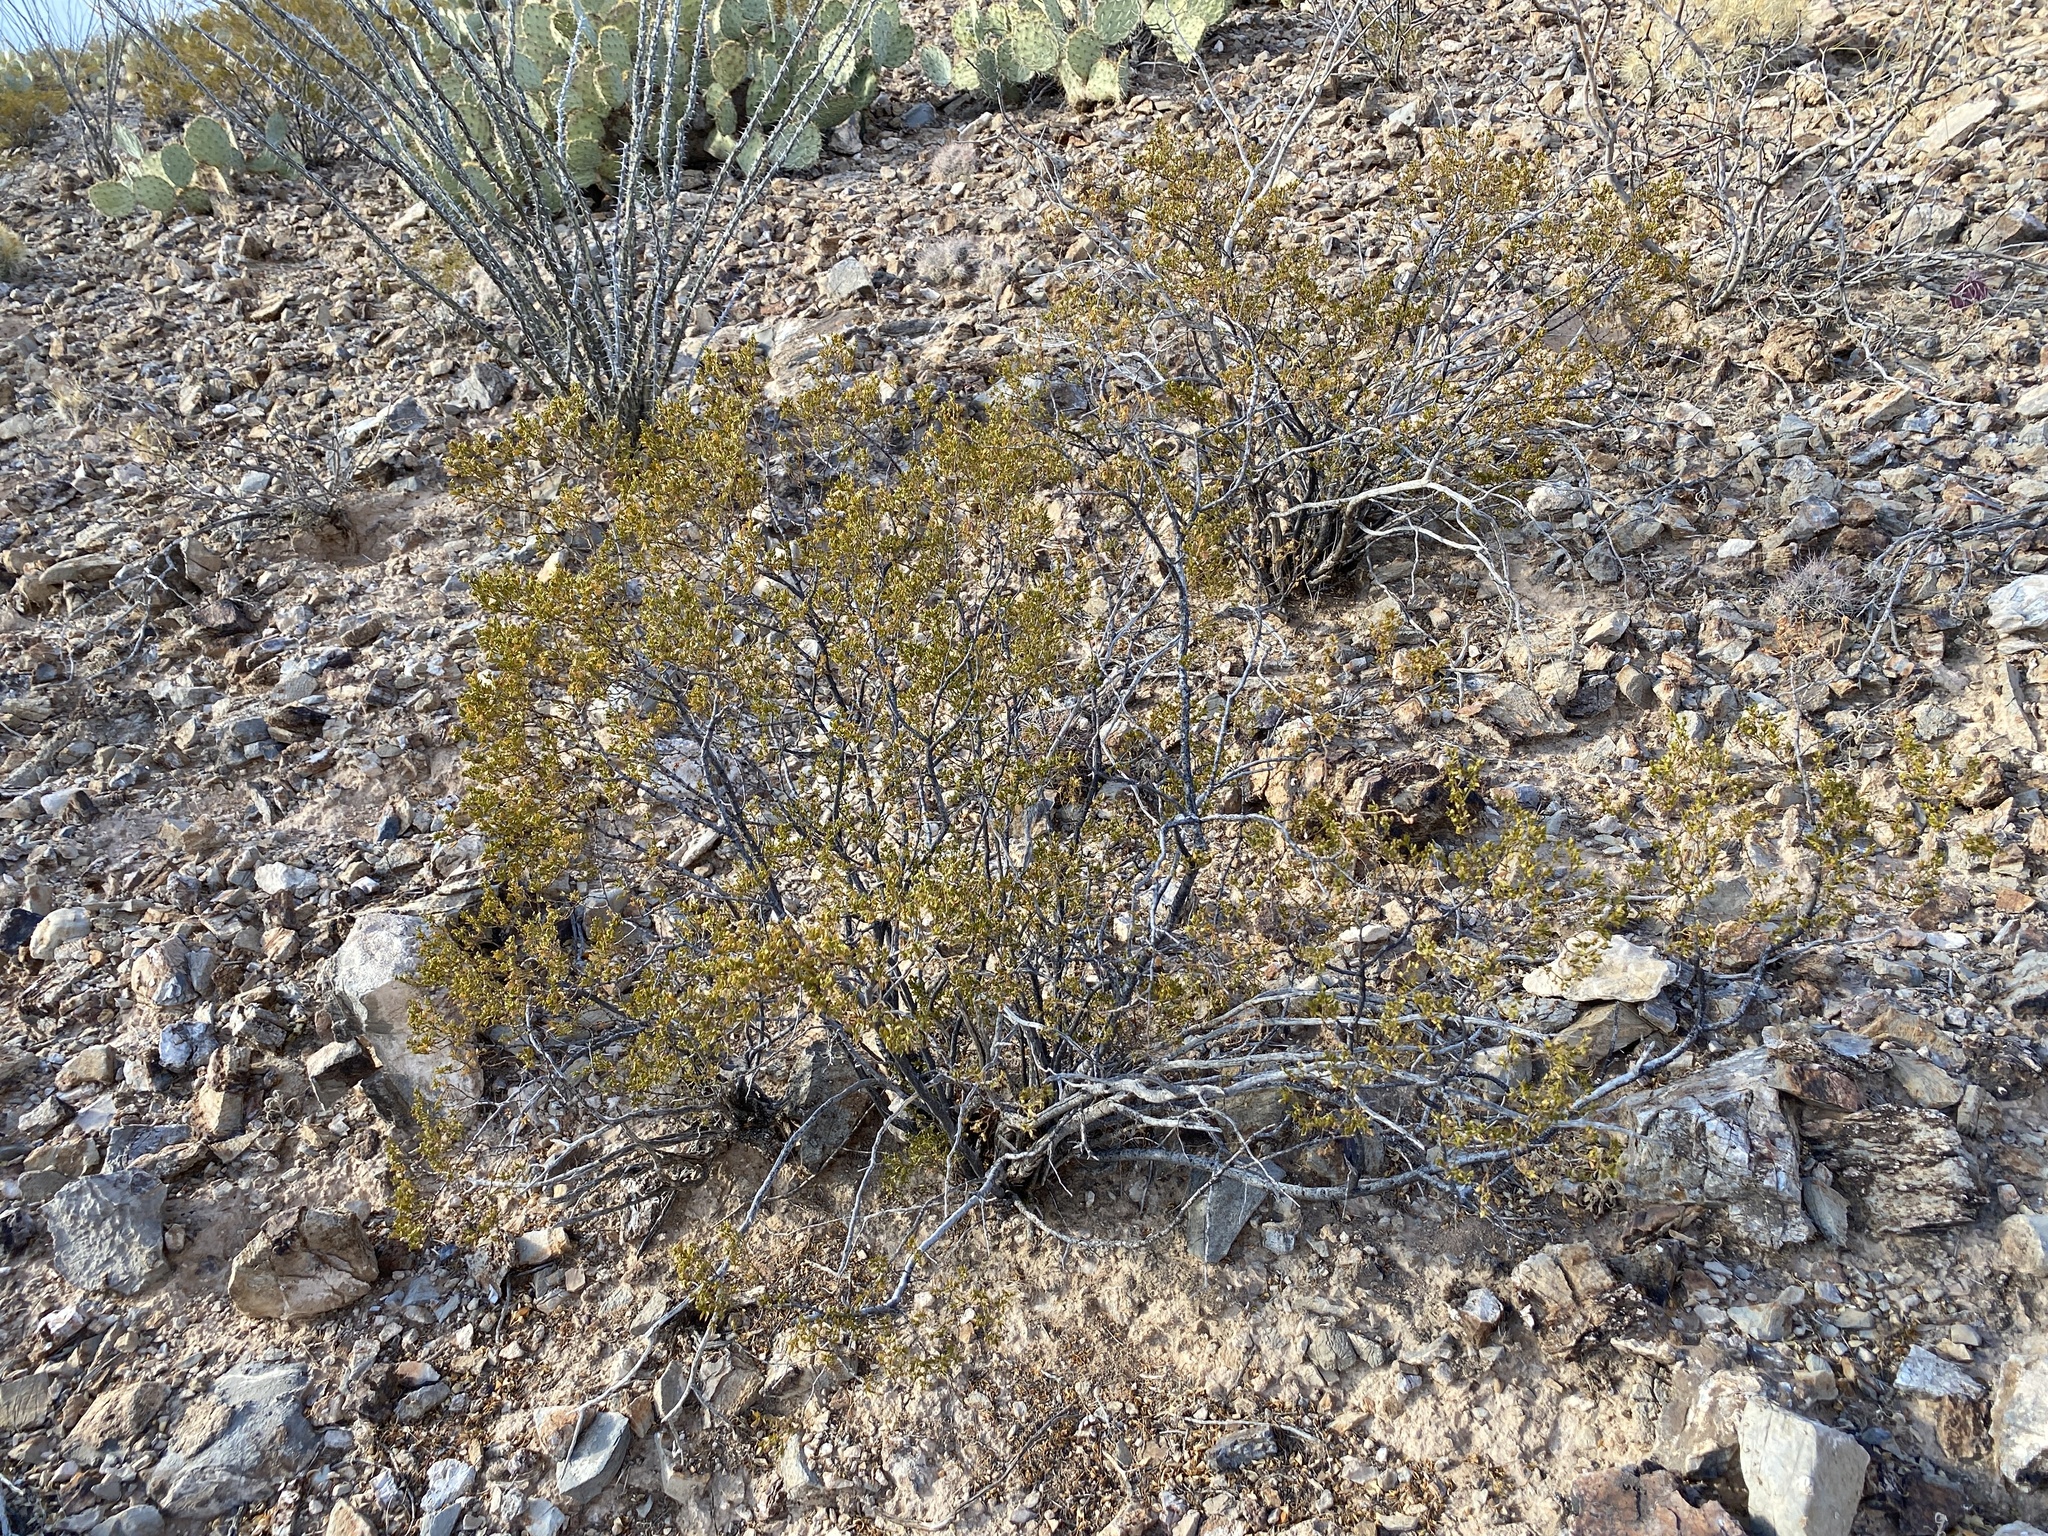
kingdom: Plantae
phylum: Tracheophyta
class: Magnoliopsida
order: Zygophyllales
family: Zygophyllaceae
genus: Larrea
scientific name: Larrea tridentata
